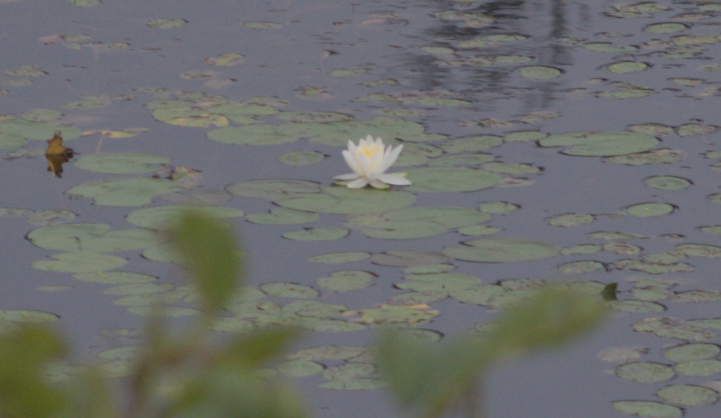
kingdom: Plantae
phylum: Tracheophyta
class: Magnoliopsida
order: Nymphaeales
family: Nymphaeaceae
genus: Nymphaea
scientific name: Nymphaea odorata
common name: Fragrant water-lily
